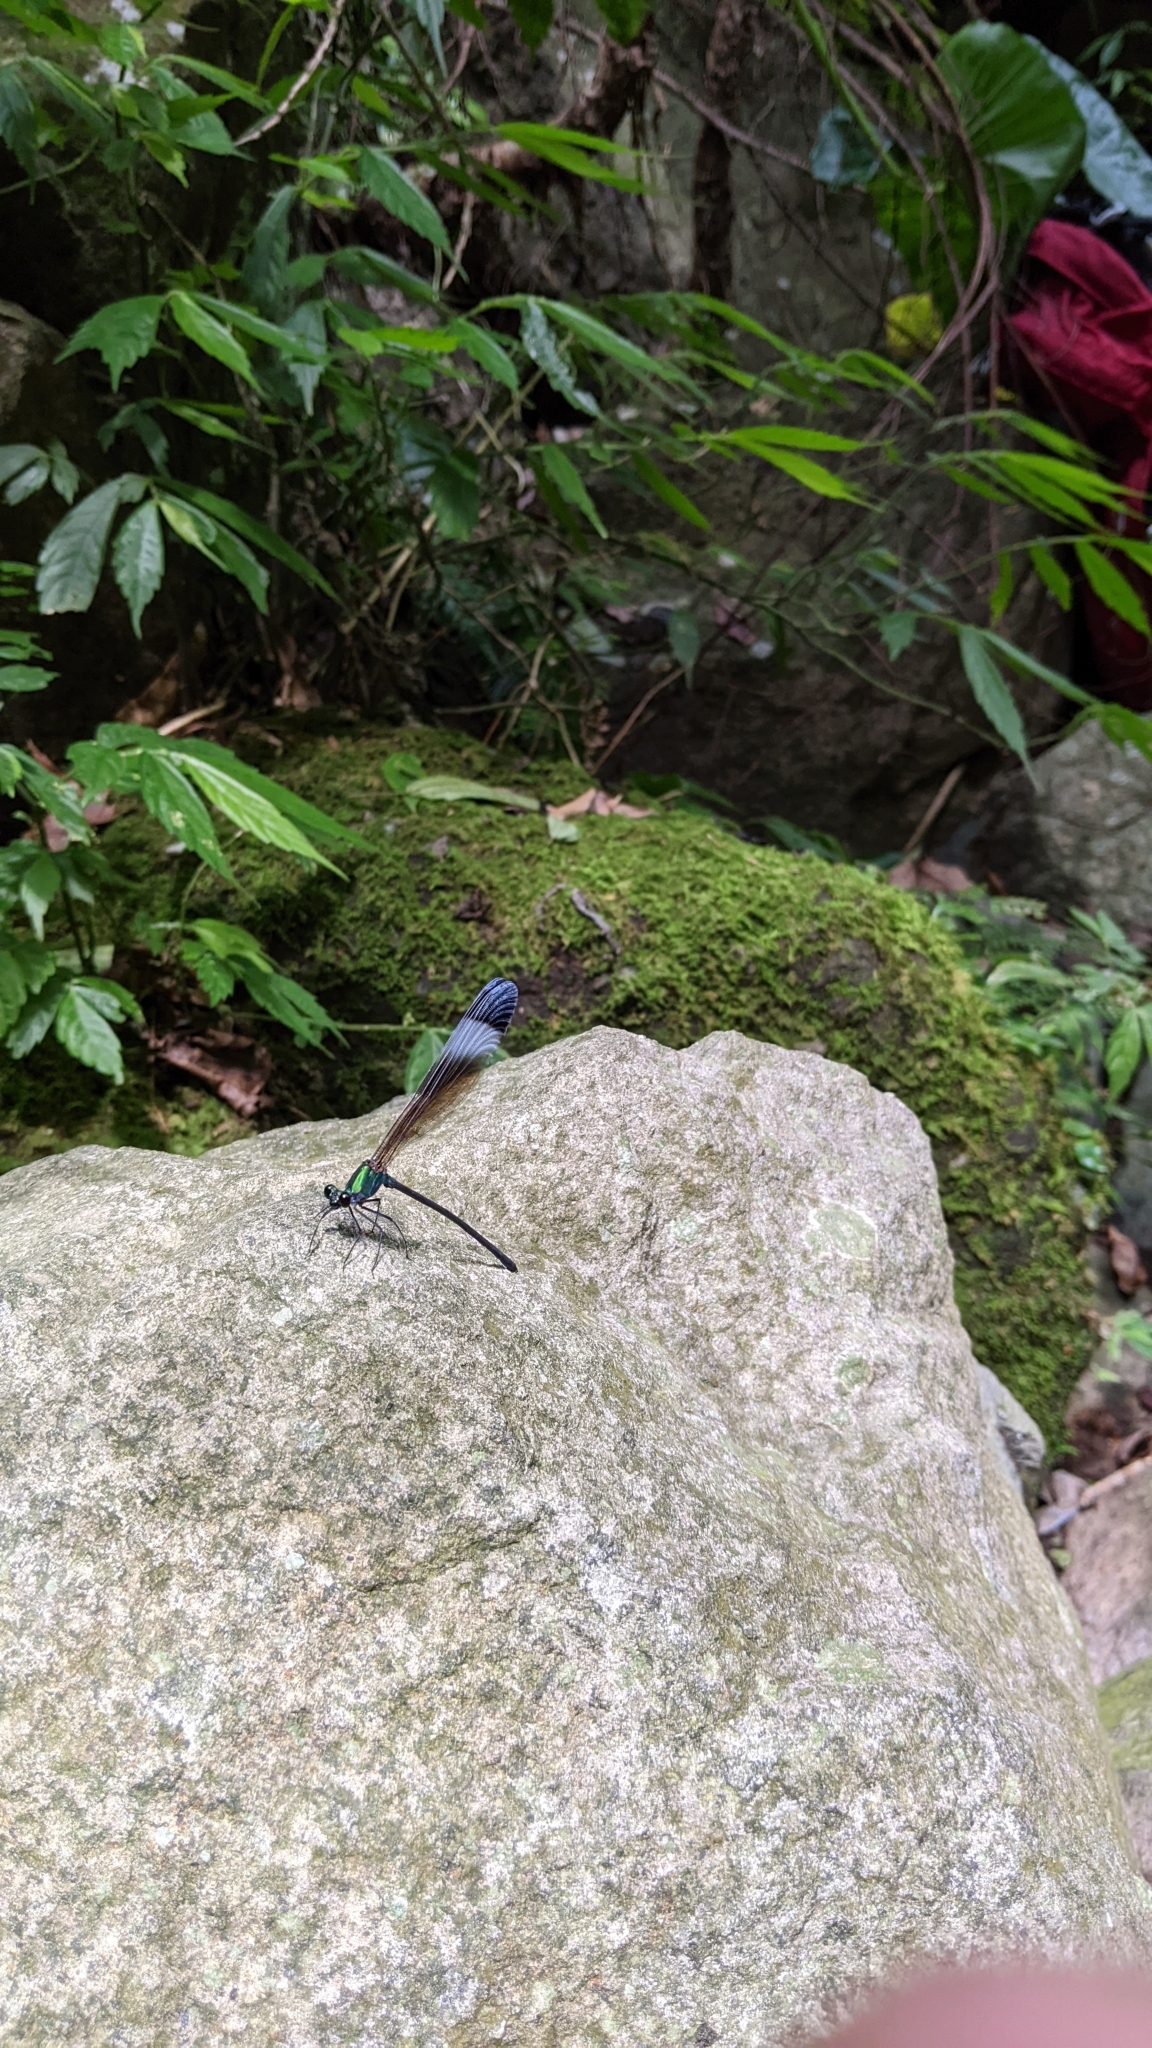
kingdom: Animalia
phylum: Arthropoda
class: Insecta
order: Odonata
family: Calopterygidae
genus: Psolodesmus
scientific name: Psolodesmus mandarinus
